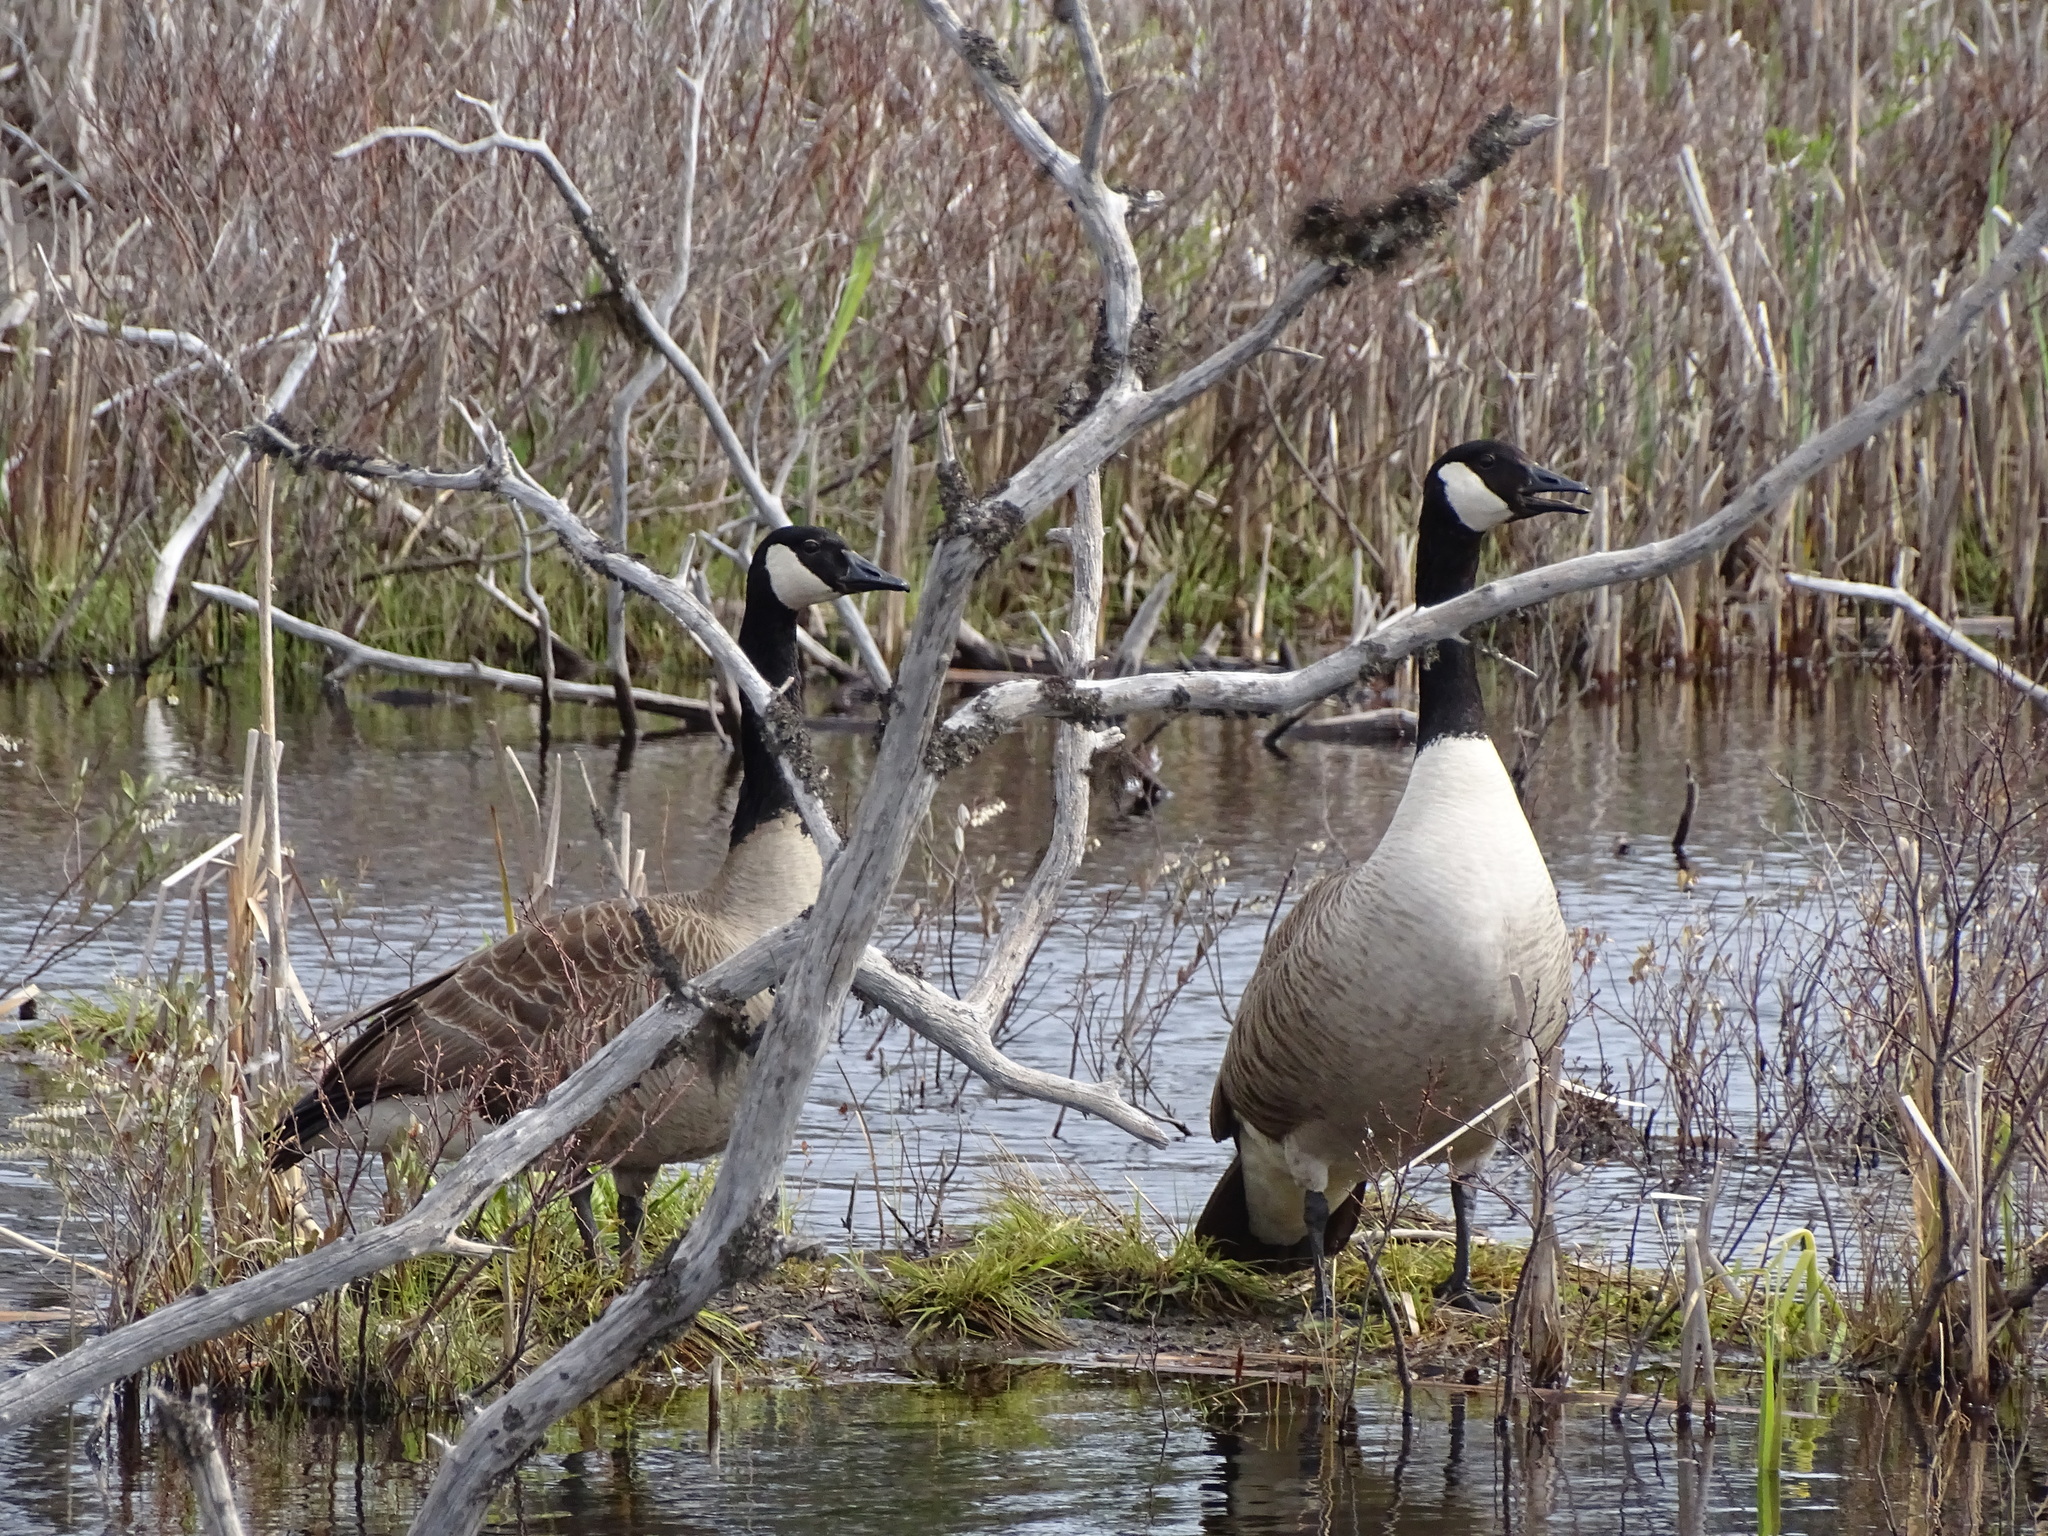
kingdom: Animalia
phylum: Chordata
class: Aves
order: Anseriformes
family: Anatidae
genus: Branta
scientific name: Branta canadensis
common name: Canada goose
